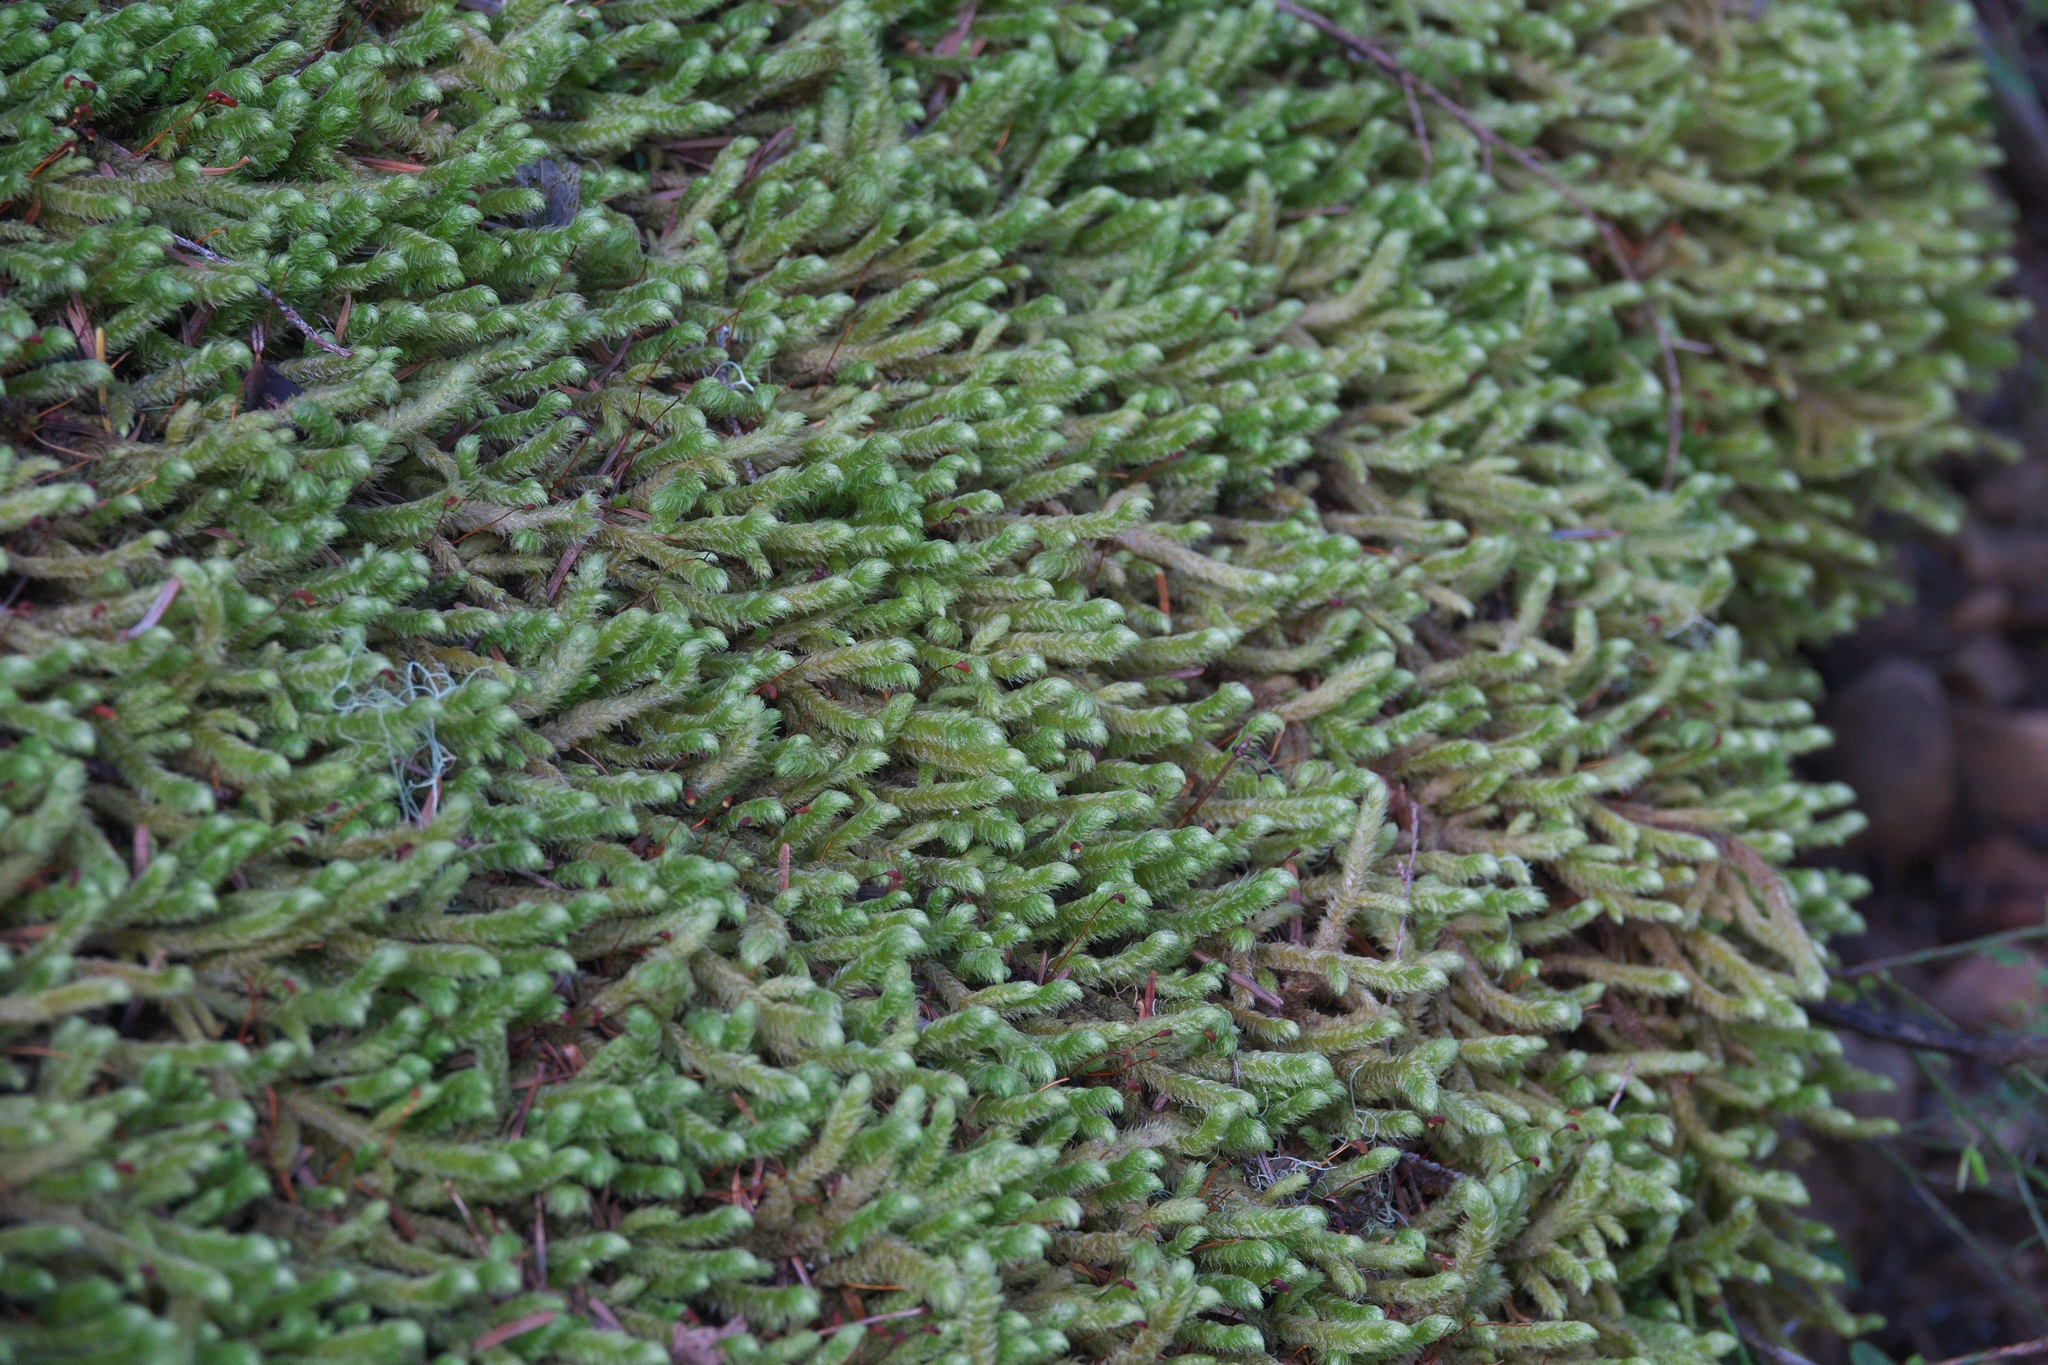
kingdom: Plantae
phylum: Bryophyta
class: Bryopsida
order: Hypnales
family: Hylocomiaceae
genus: Rhytidiopsis
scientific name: Rhytidiopsis robusta
